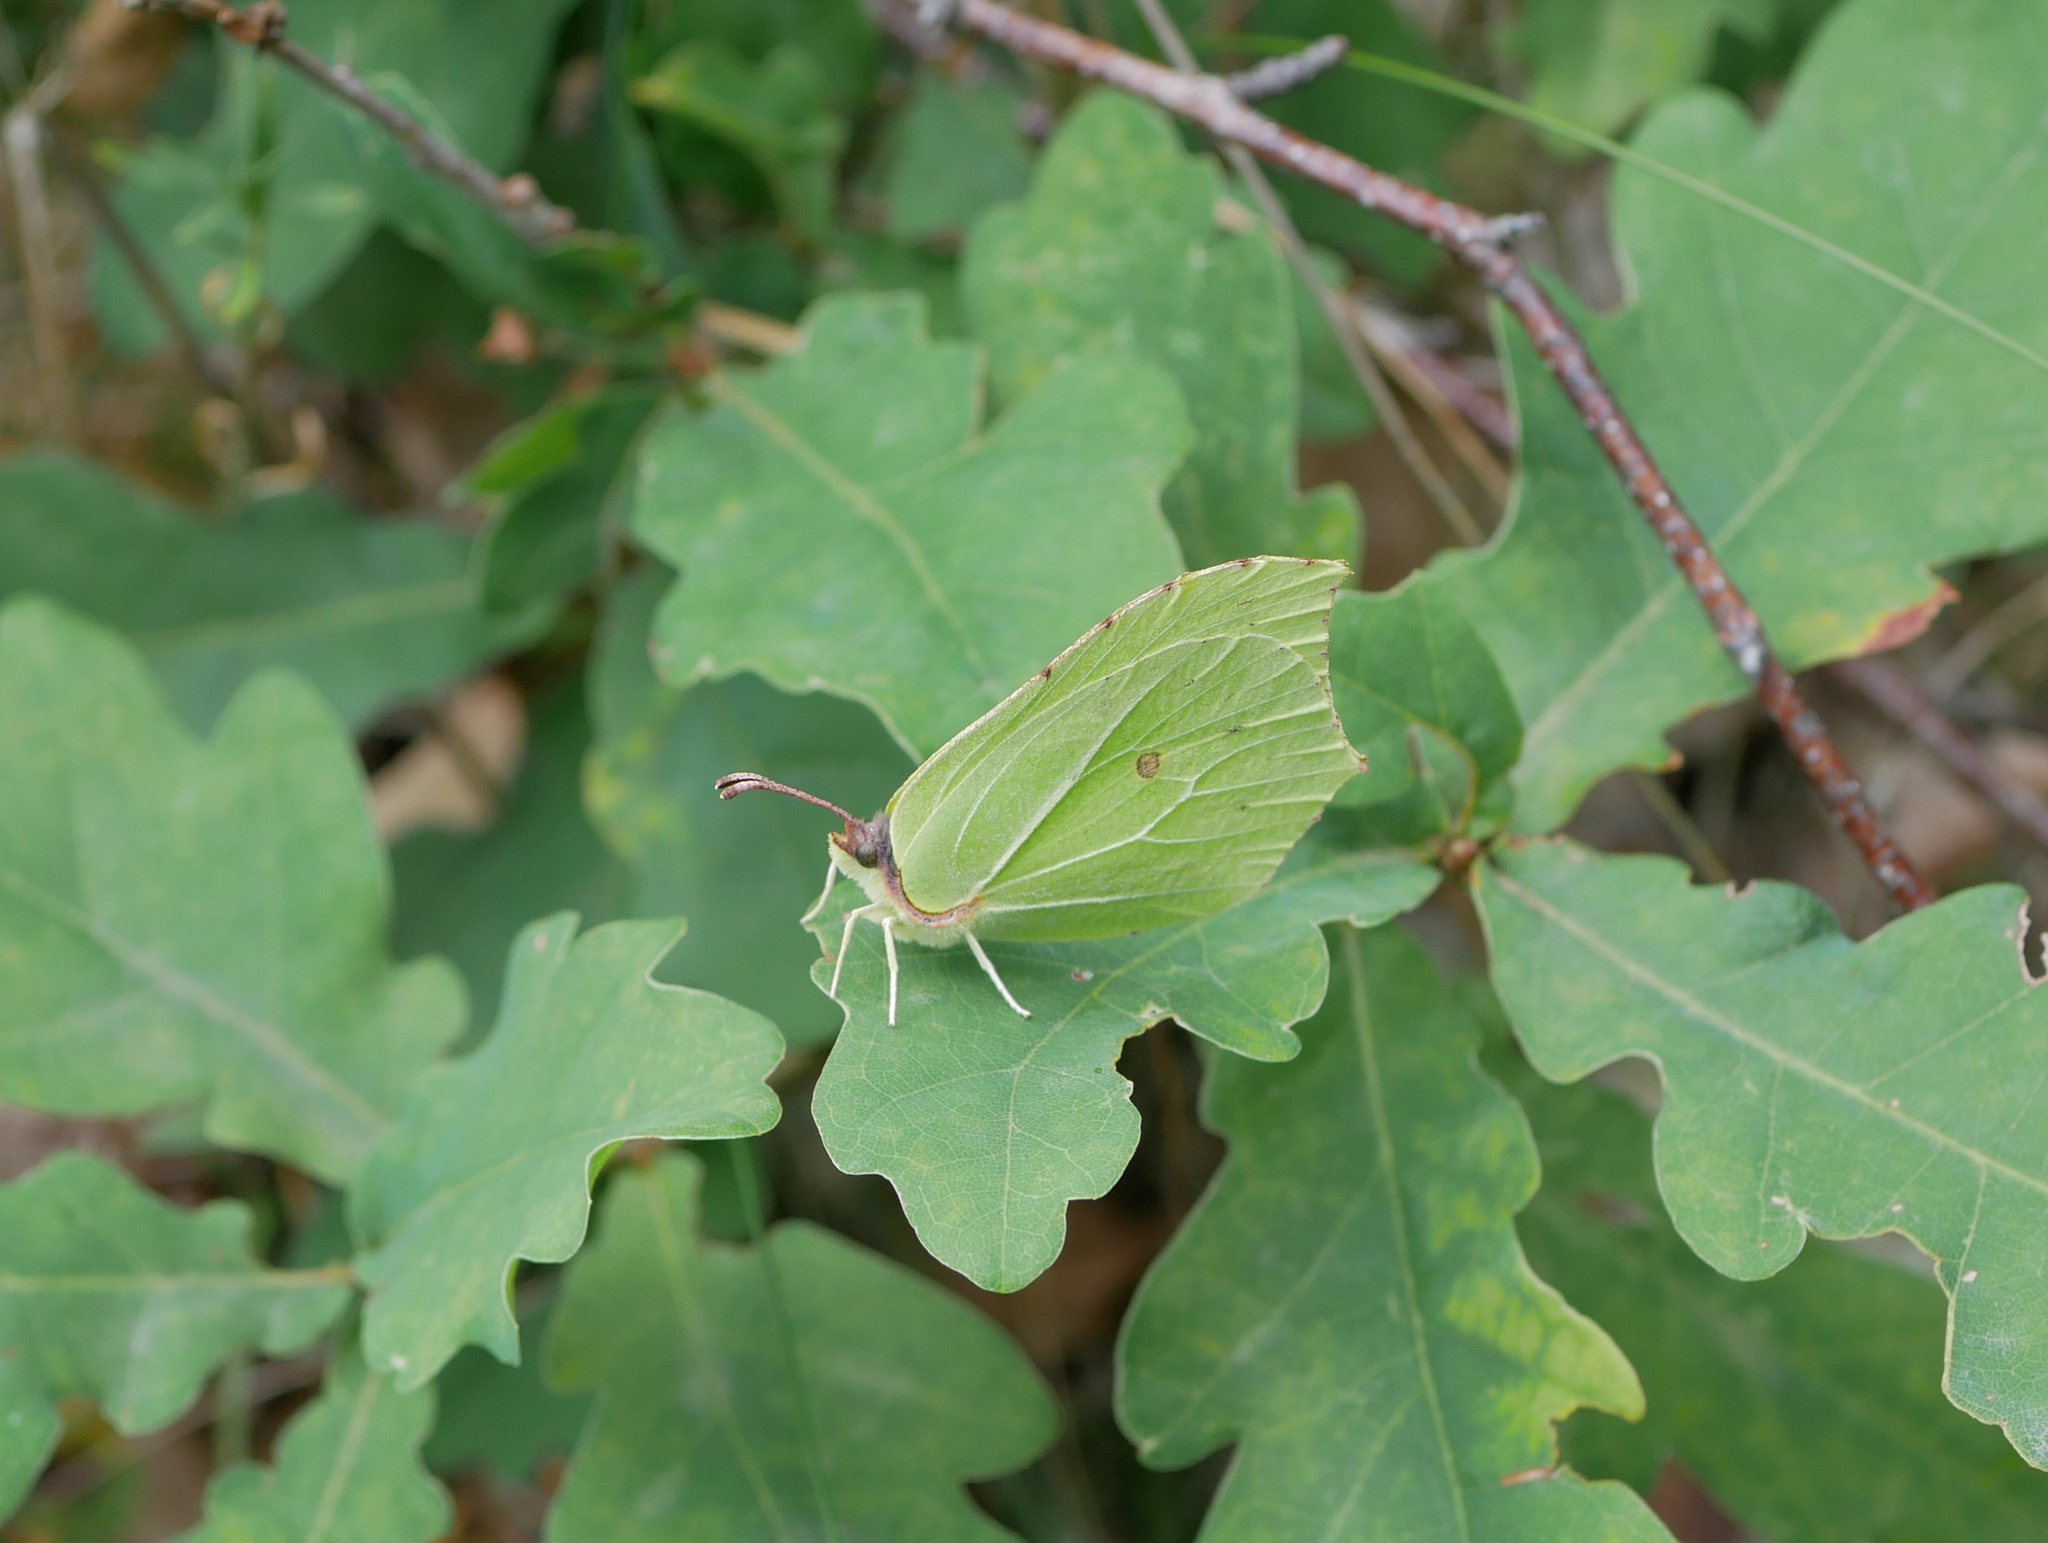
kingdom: Animalia
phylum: Arthropoda
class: Insecta
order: Lepidoptera
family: Pieridae
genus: Gonepteryx
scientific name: Gonepteryx rhamni
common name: Brimstone
